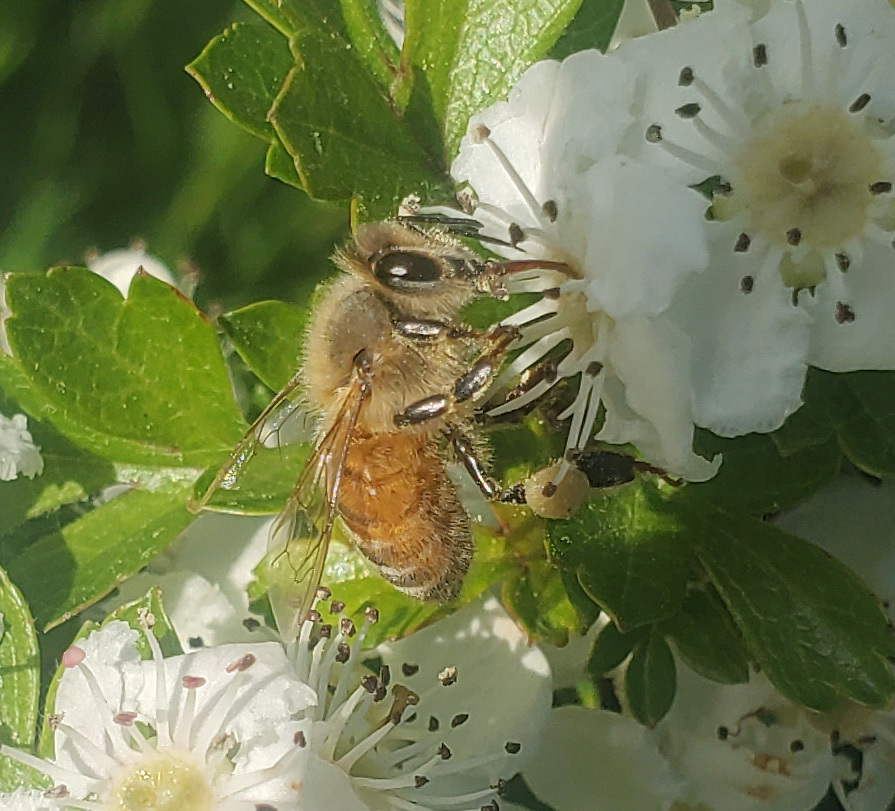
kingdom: Animalia
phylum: Arthropoda
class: Insecta
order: Hymenoptera
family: Apidae
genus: Apis
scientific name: Apis mellifera
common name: Honey bee
